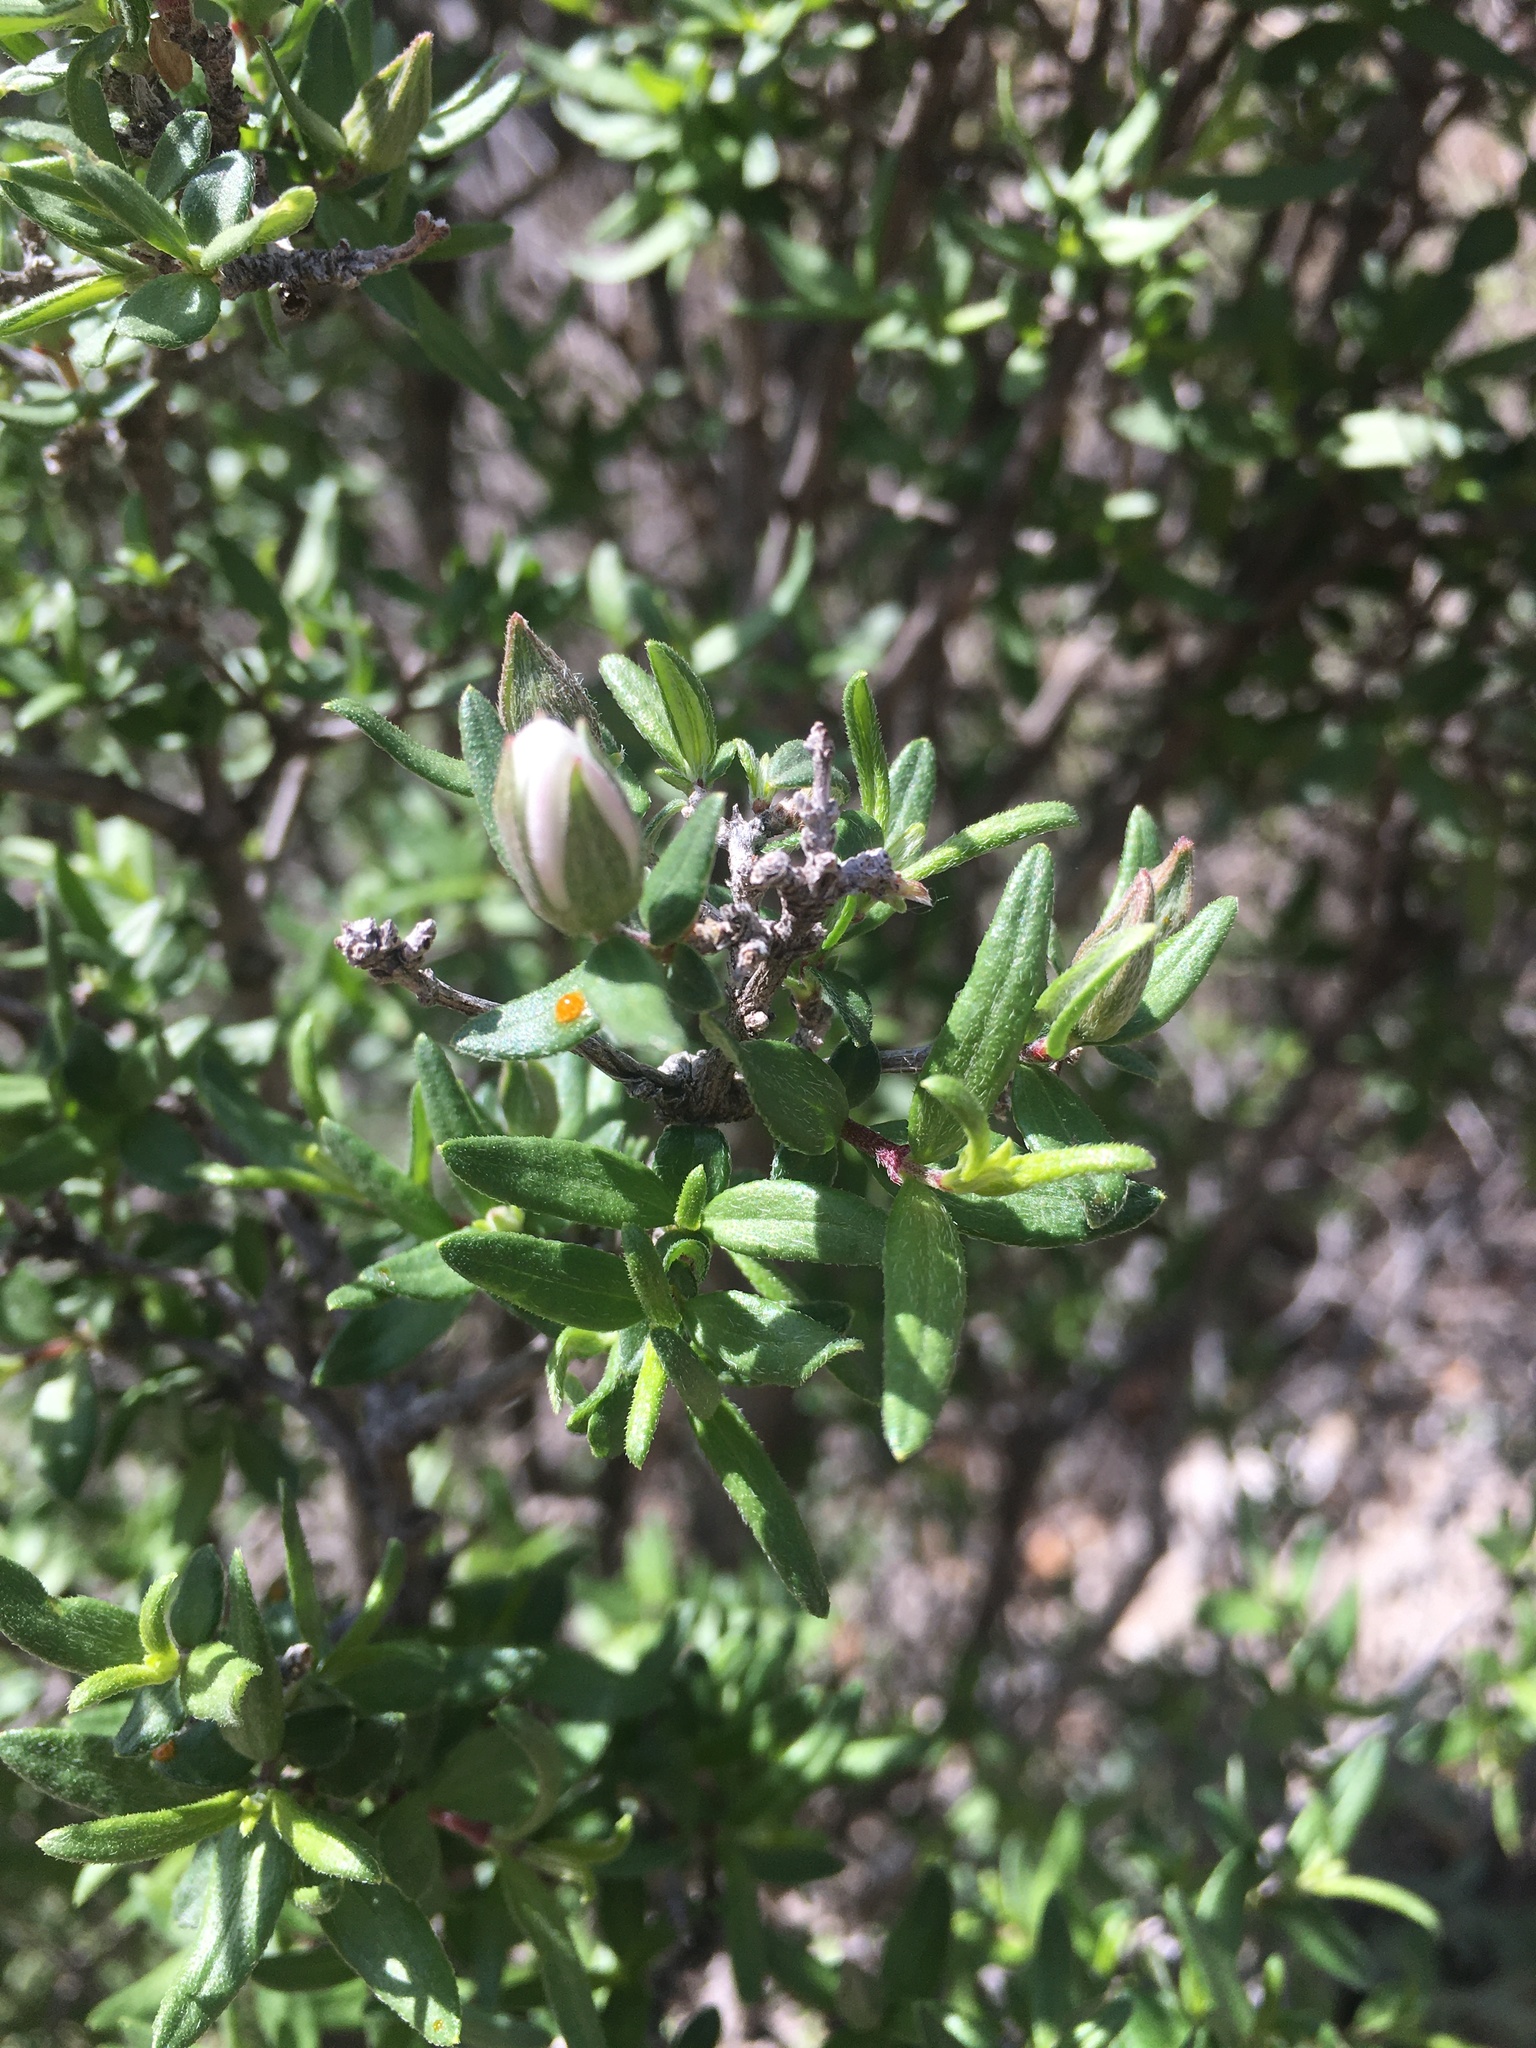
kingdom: Plantae
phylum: Tracheophyta
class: Magnoliopsida
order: Cornales
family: Hydrangeaceae
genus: Fendlera
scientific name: Fendlera rupicola
